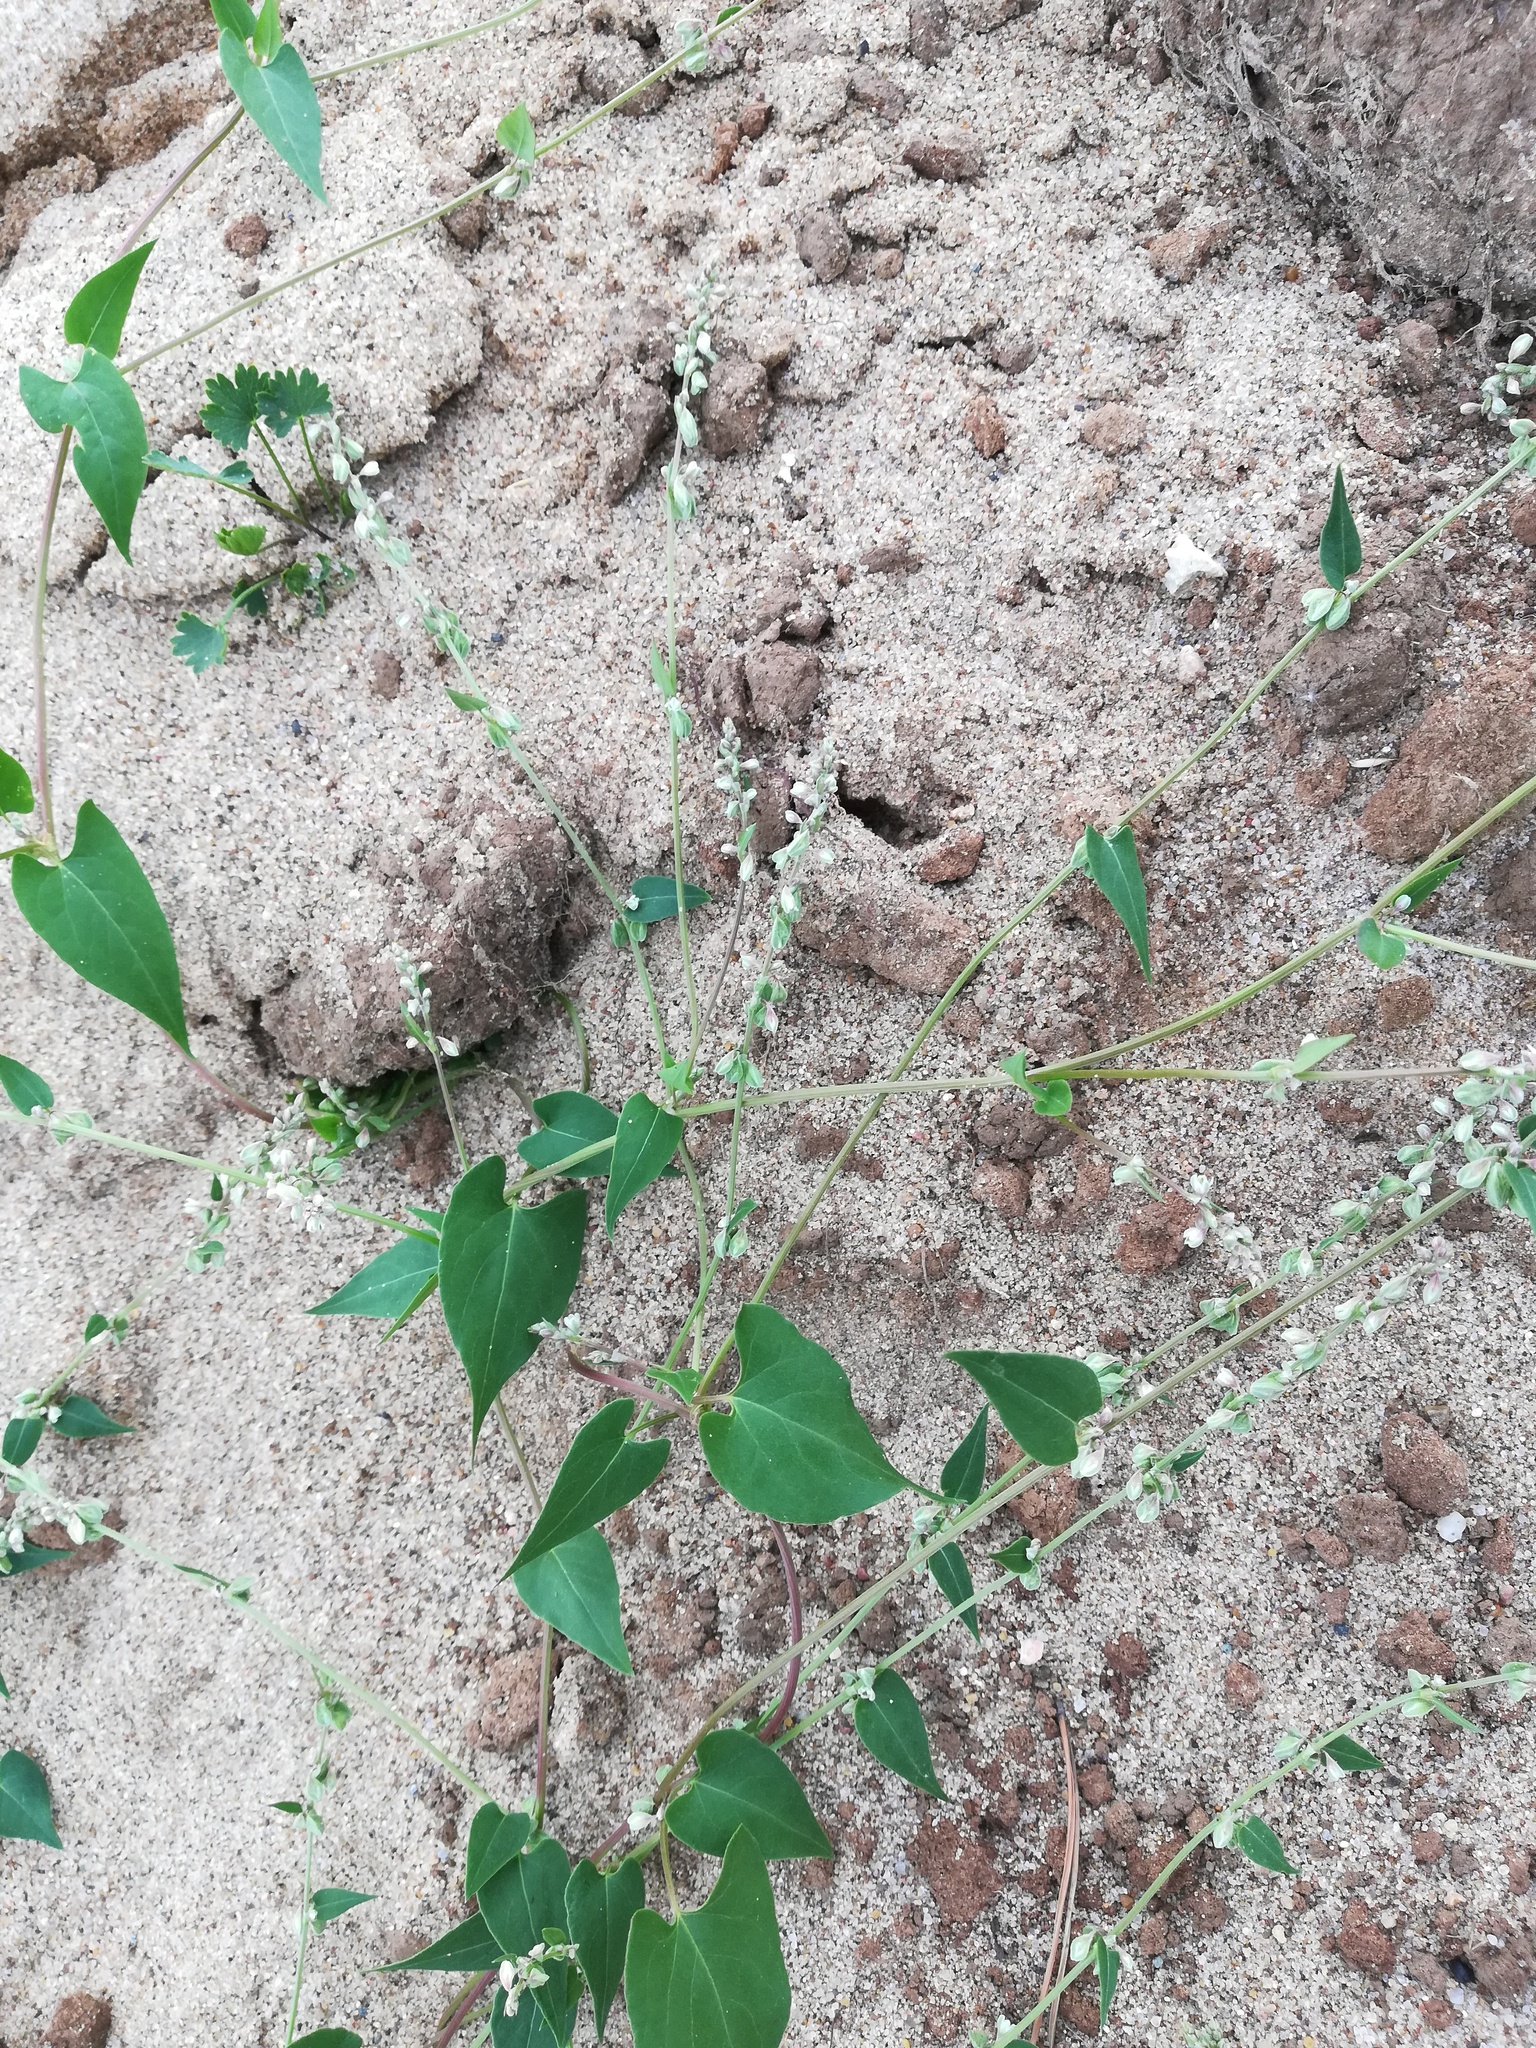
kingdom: Plantae
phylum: Tracheophyta
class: Magnoliopsida
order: Caryophyllales
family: Polygonaceae
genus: Fallopia
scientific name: Fallopia convolvulus
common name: Black bindweed
